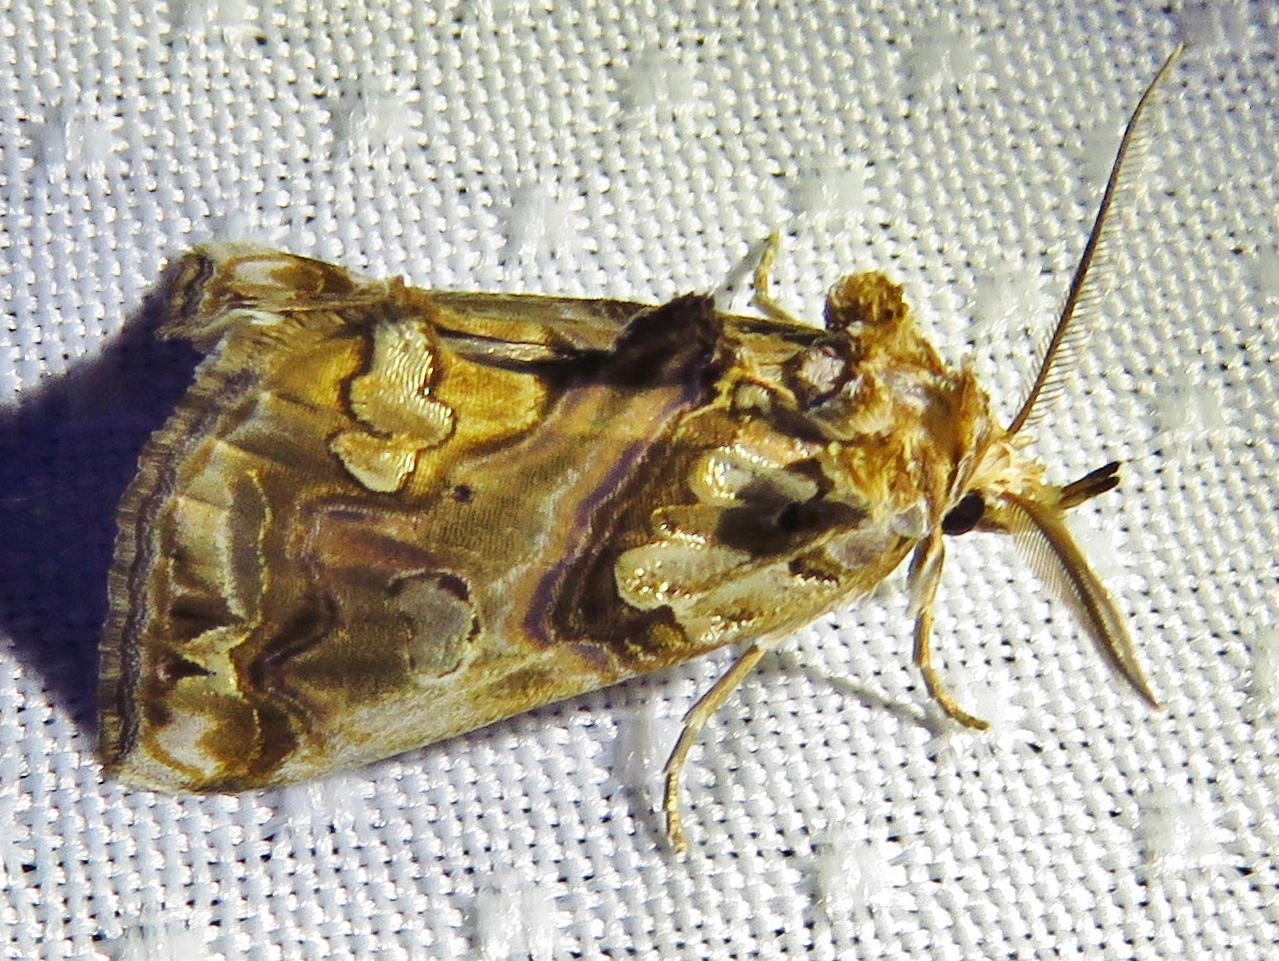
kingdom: Animalia
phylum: Arthropoda
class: Insecta
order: Lepidoptera
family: Erebidae
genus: Plusiodonta
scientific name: Plusiodonta compressipalpis
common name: Moonseed moth
